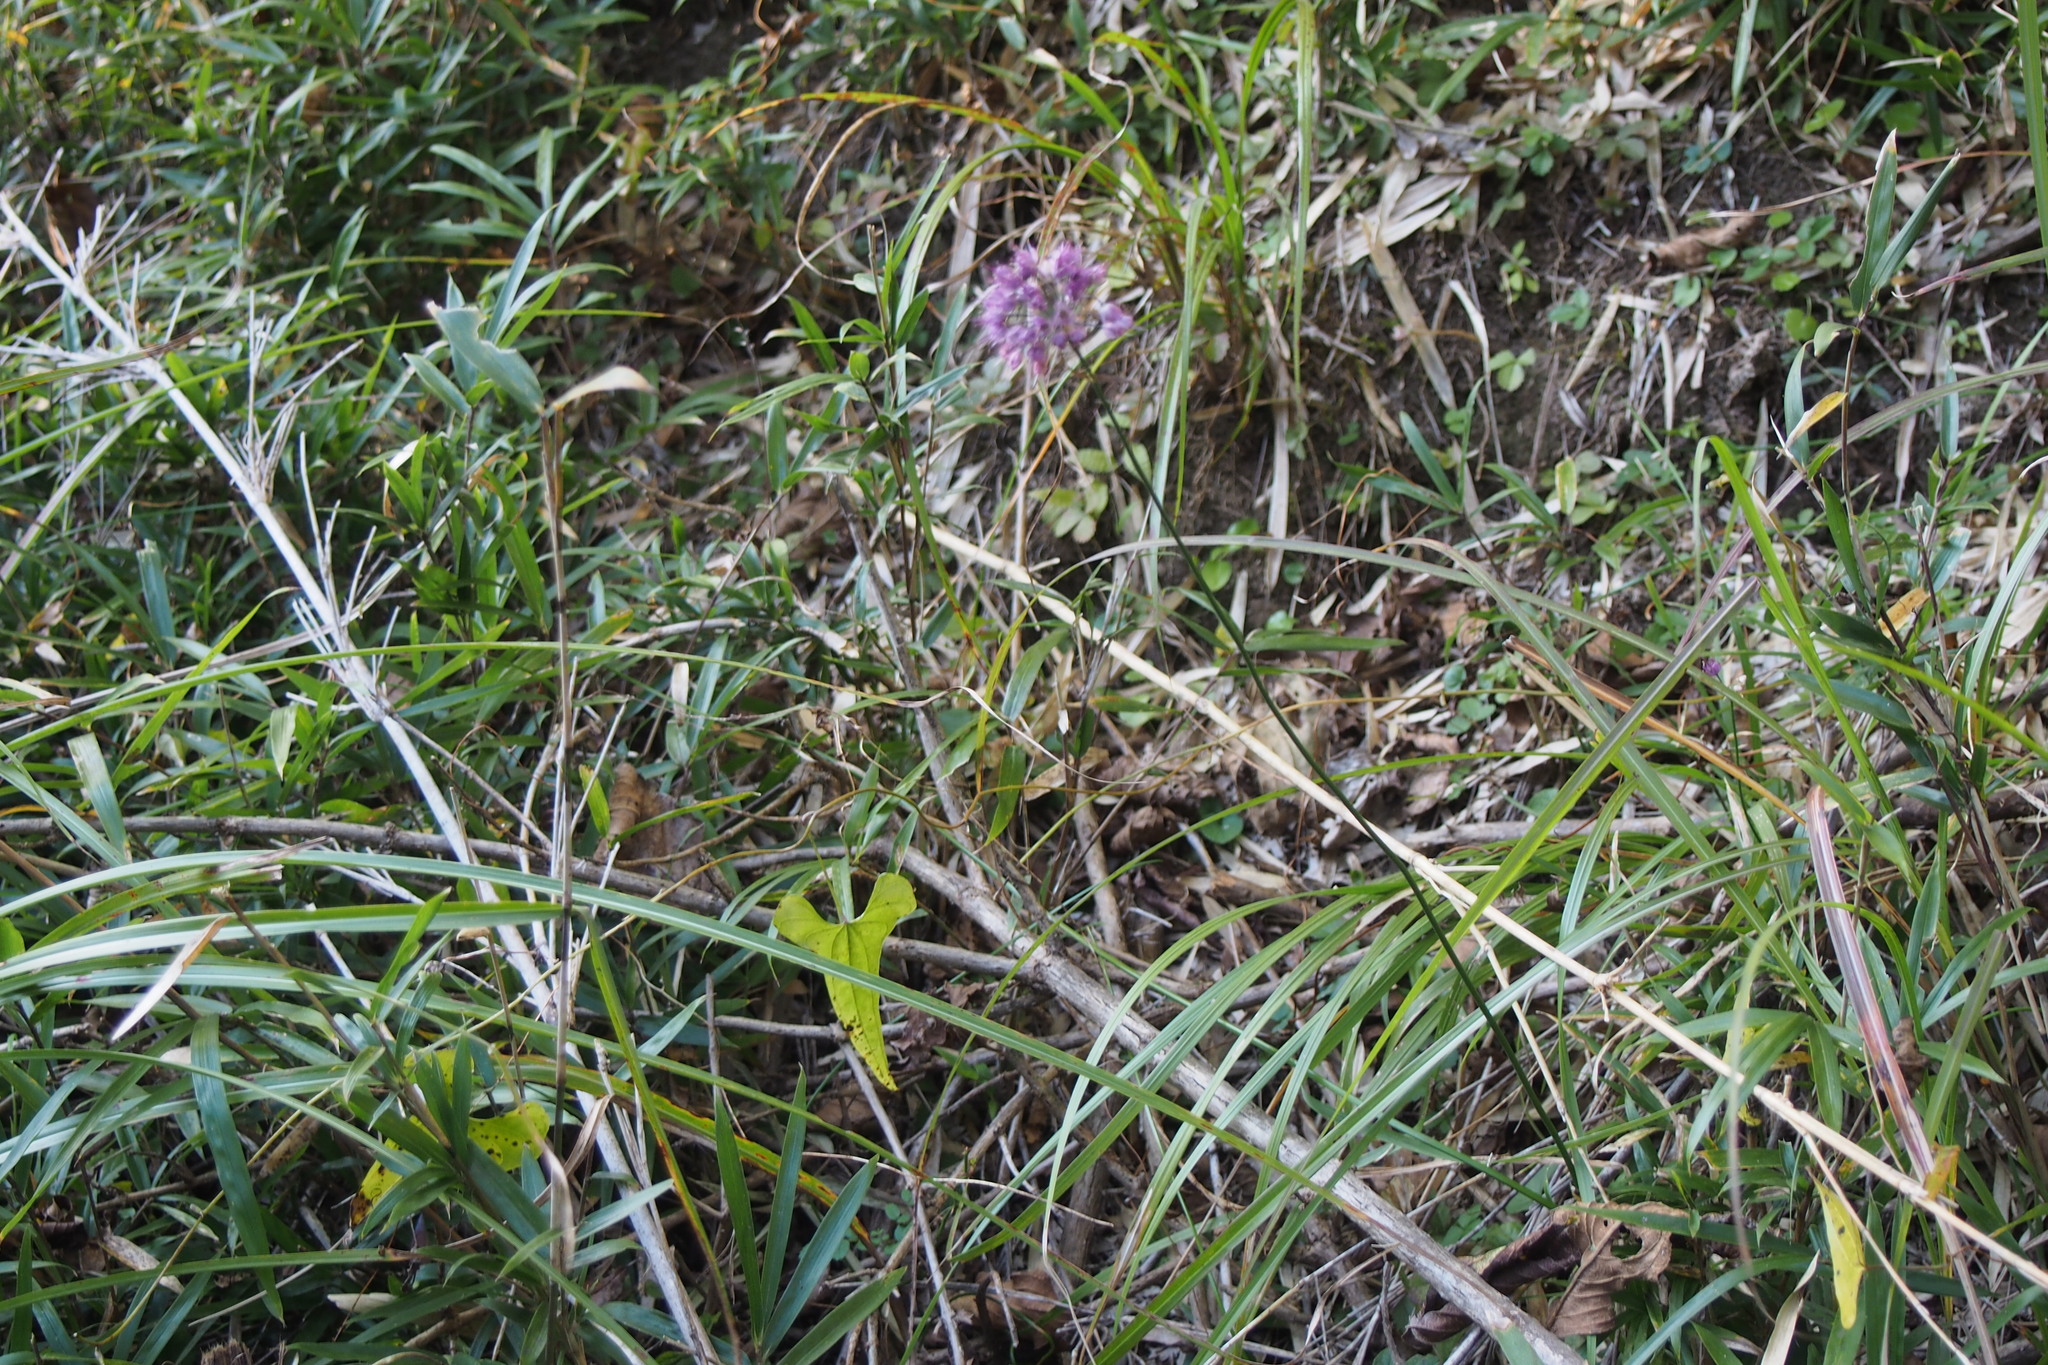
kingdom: Plantae
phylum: Tracheophyta
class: Liliopsida
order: Asparagales
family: Amaryllidaceae
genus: Allium
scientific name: Allium thunbergii
